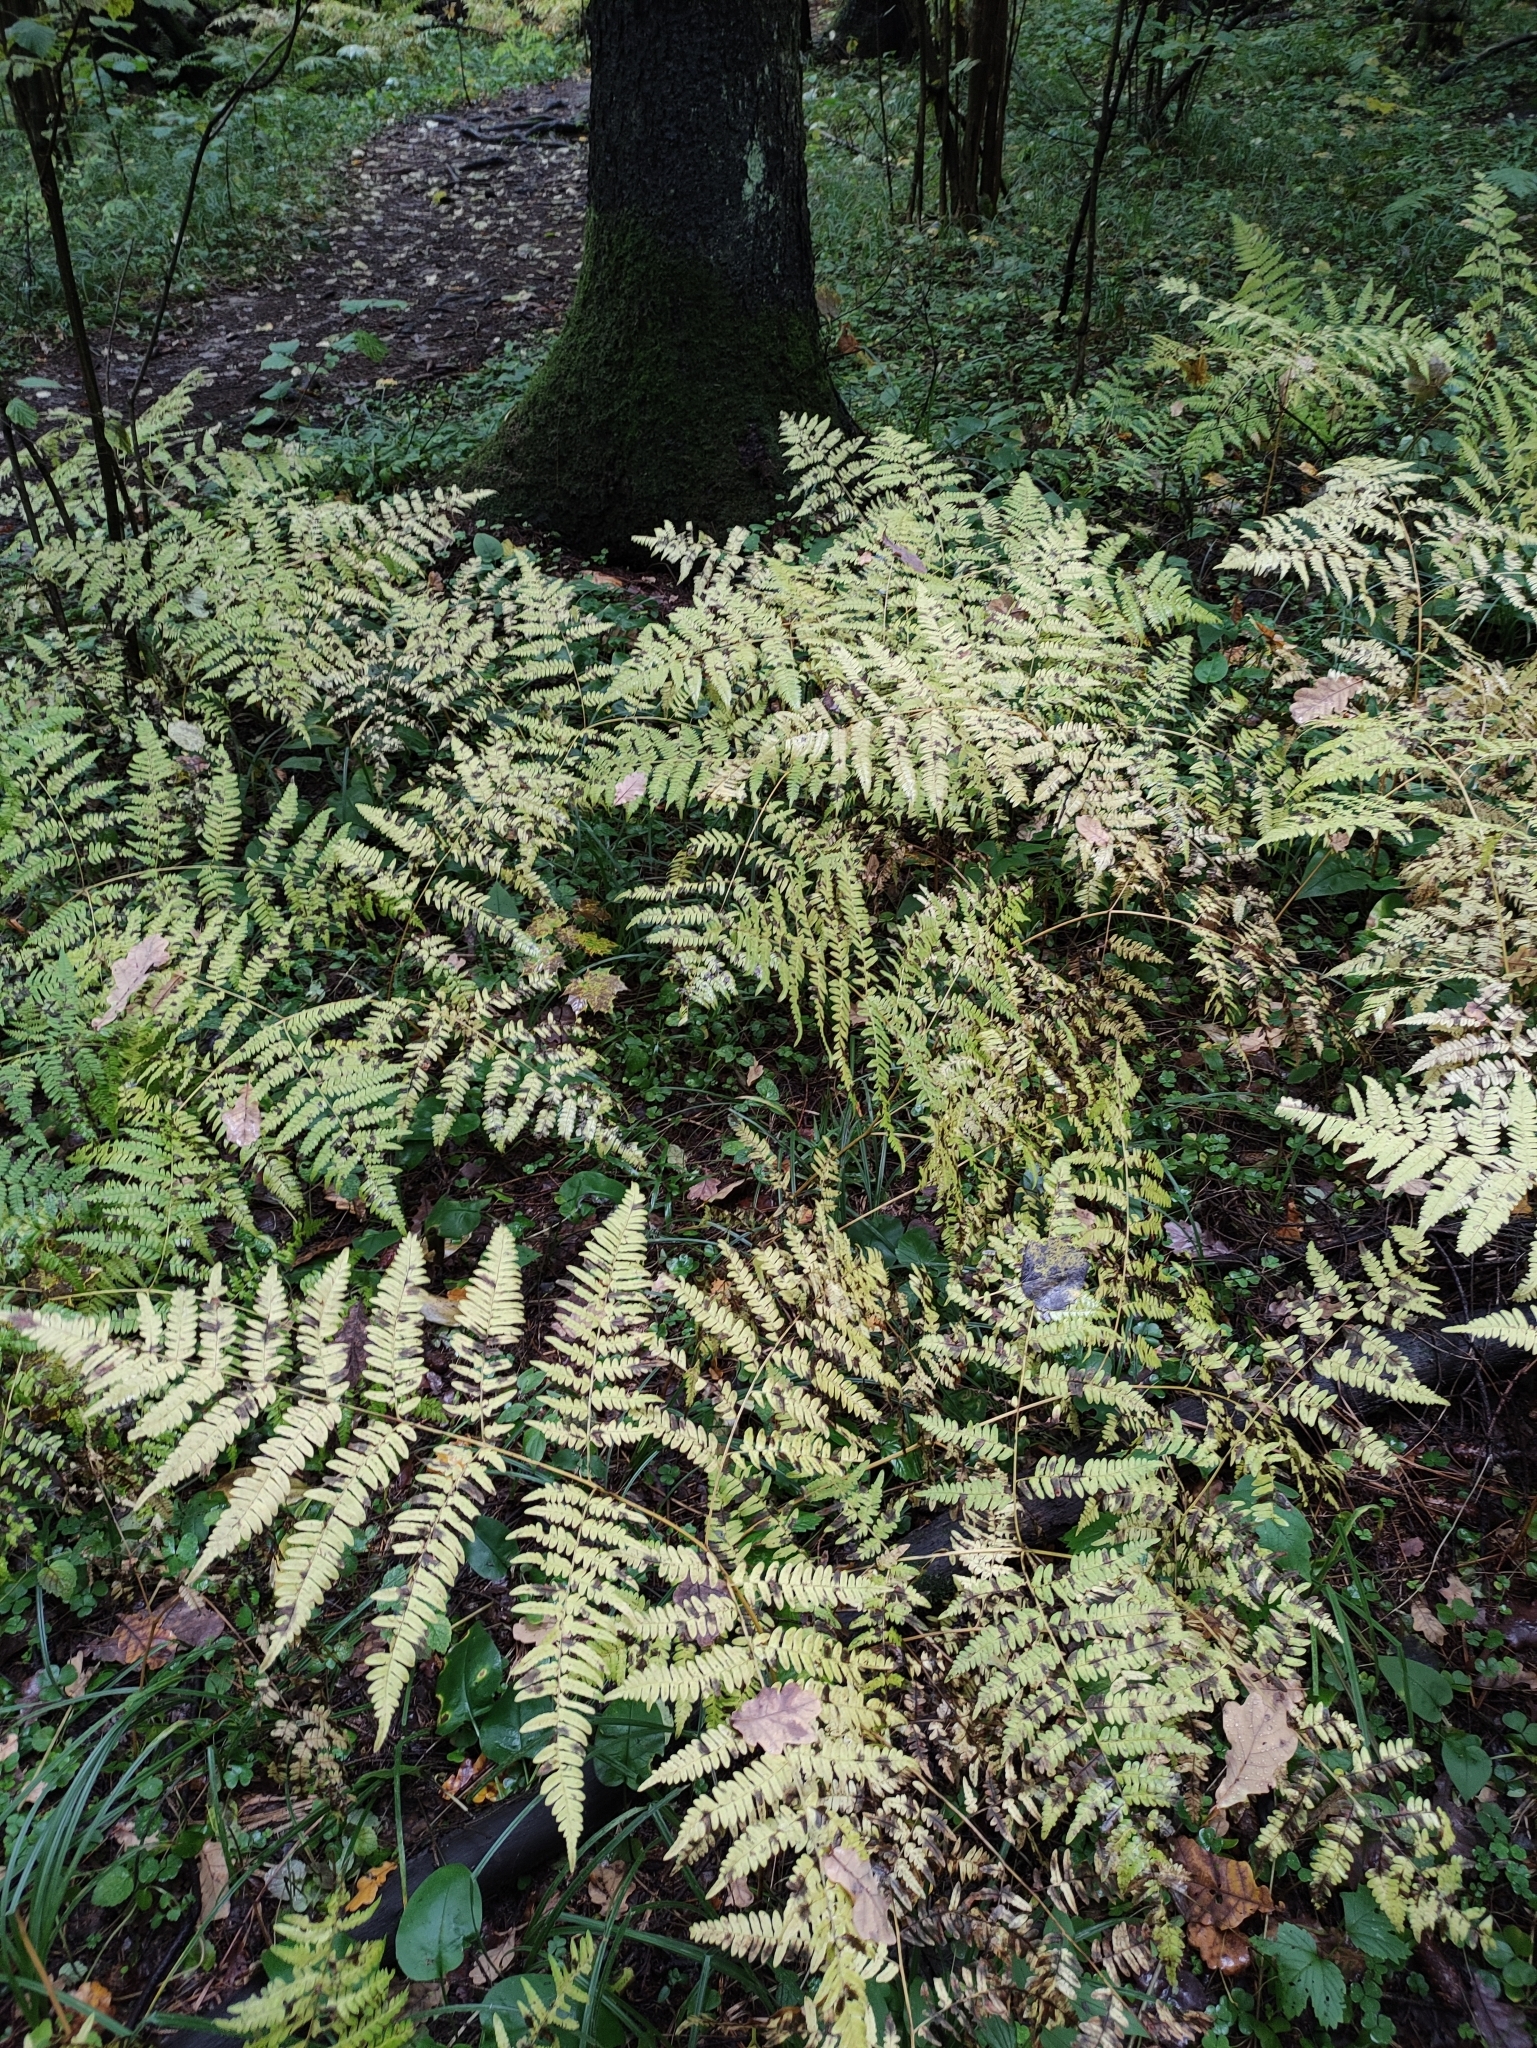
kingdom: Plantae
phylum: Tracheophyta
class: Polypodiopsida
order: Polypodiales
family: Dennstaedtiaceae
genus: Pteridium
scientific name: Pteridium aquilinum
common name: Bracken
